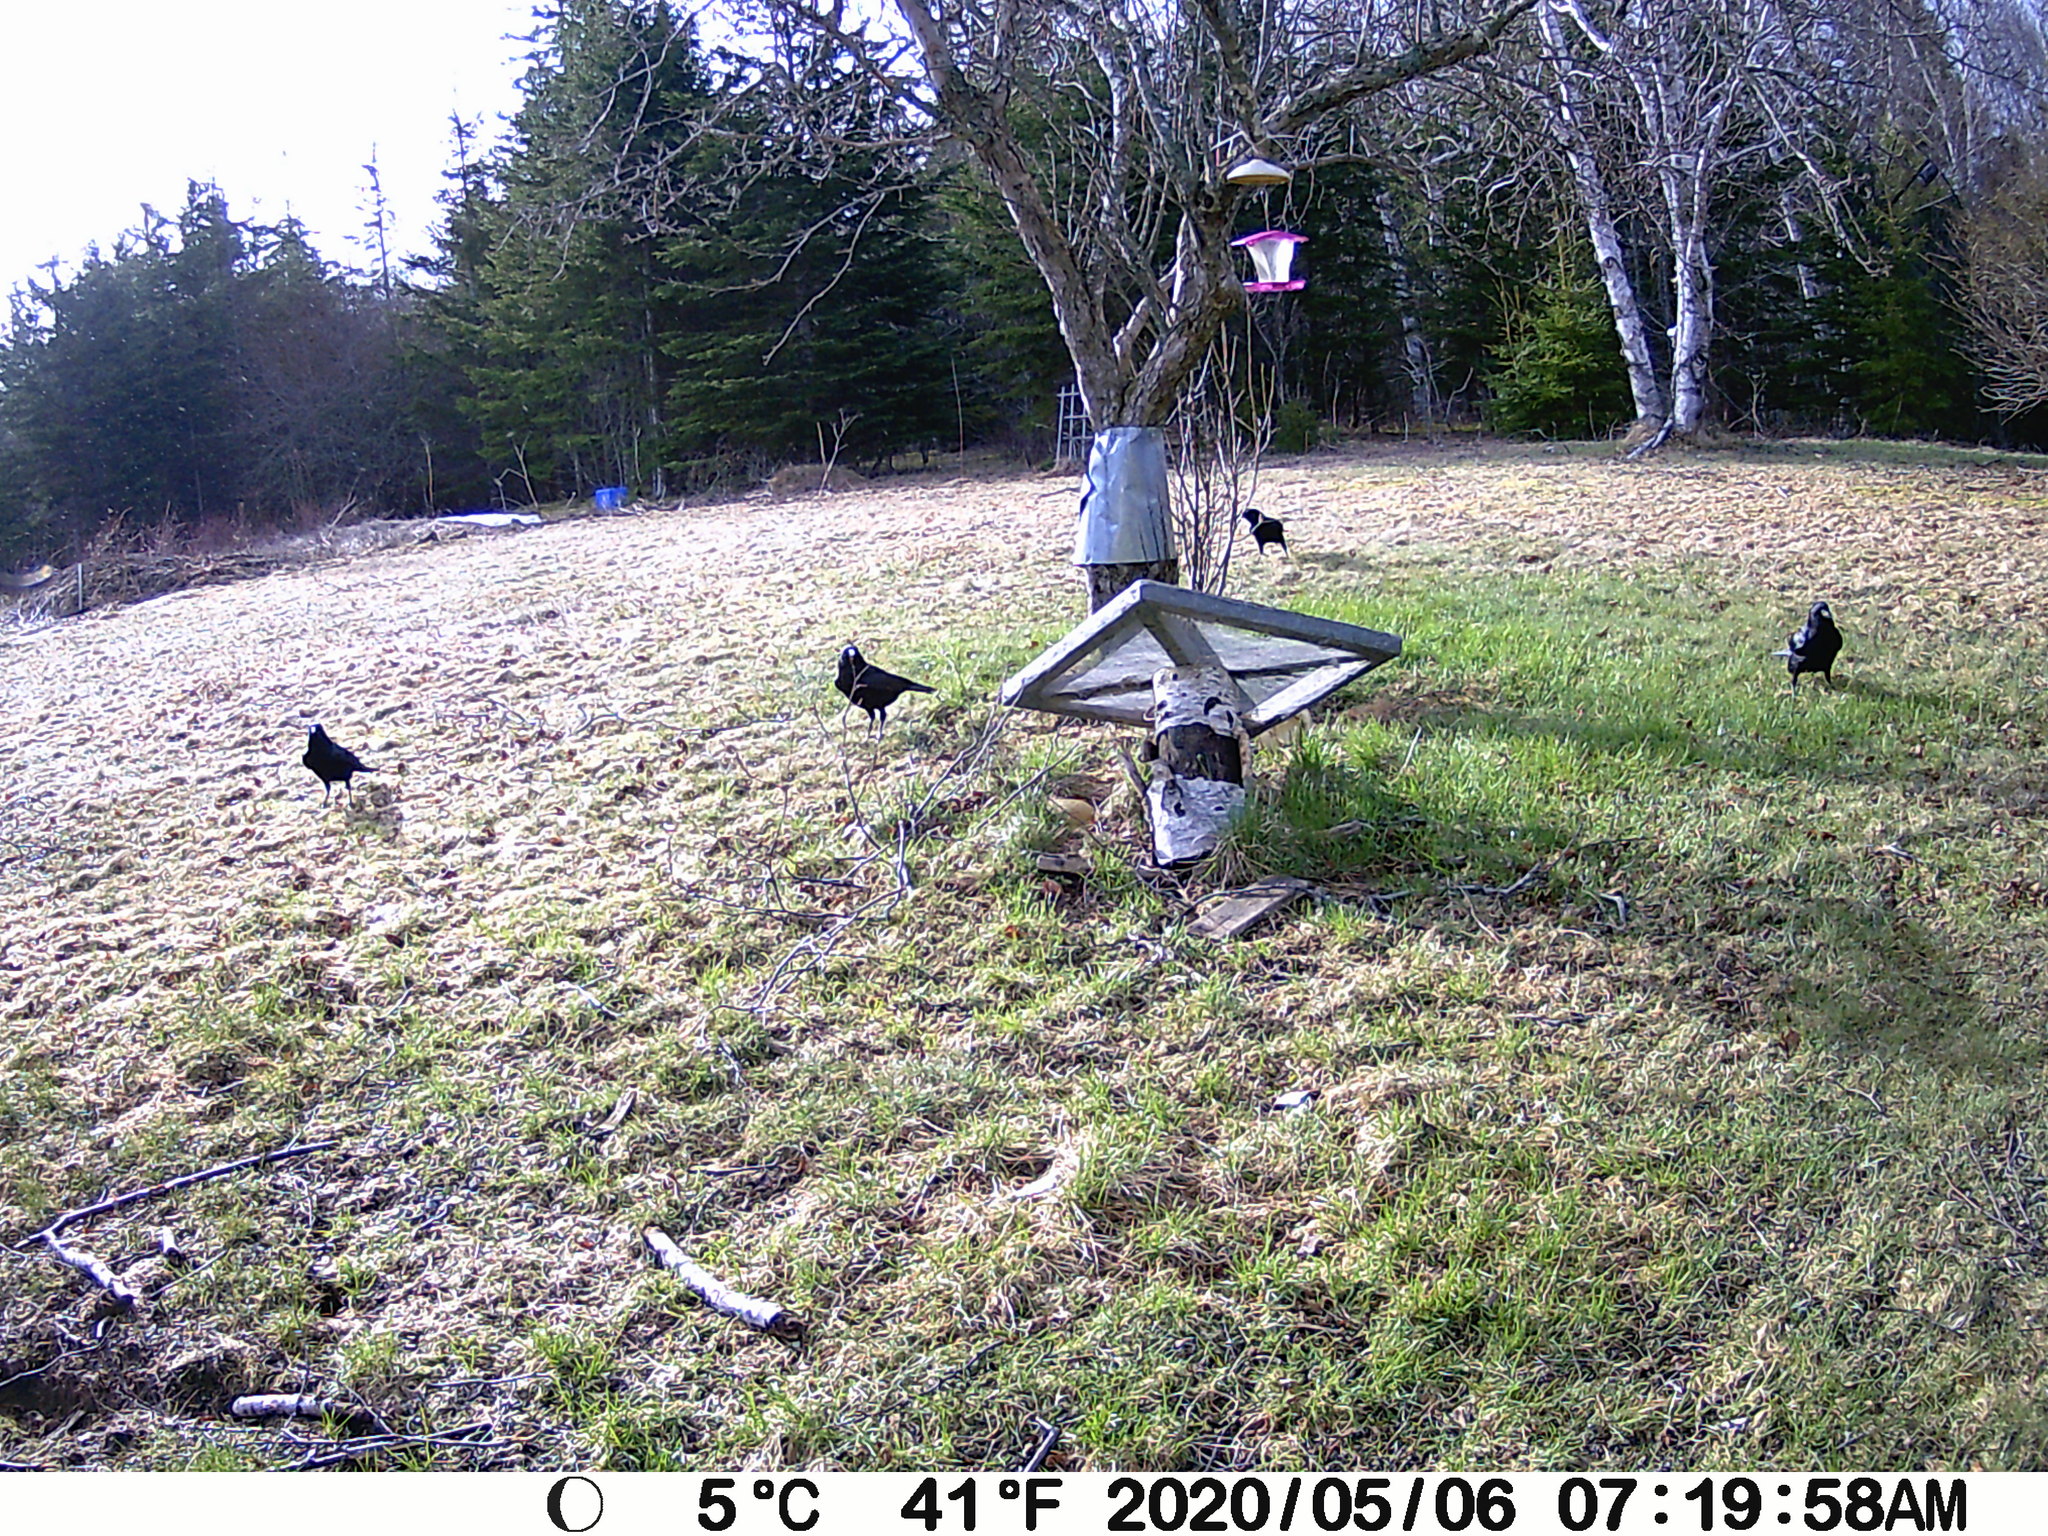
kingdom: Animalia
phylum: Chordata
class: Aves
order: Passeriformes
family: Corvidae
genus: Corvus
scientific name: Corvus brachyrhynchos
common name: American crow
